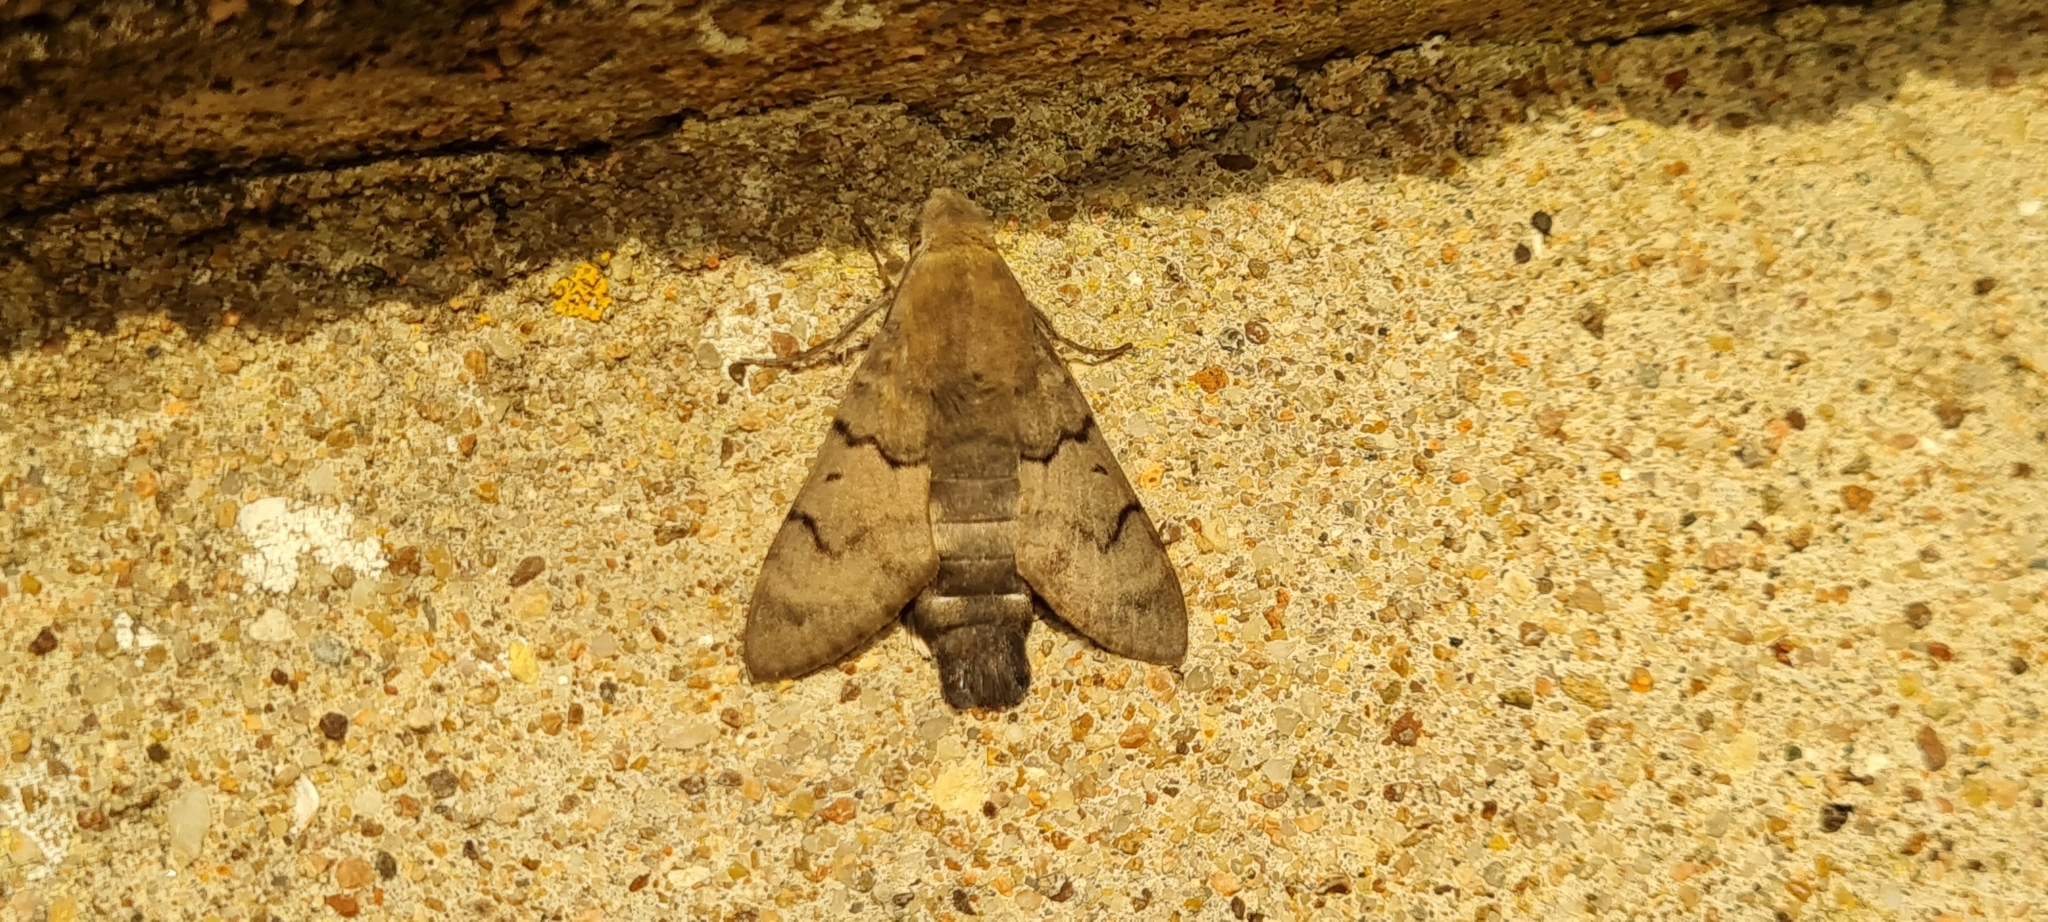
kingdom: Animalia
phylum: Arthropoda
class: Insecta
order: Lepidoptera
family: Sphingidae
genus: Macroglossum
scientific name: Macroglossum stellatarum
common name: Humming-bird hawk-moth
